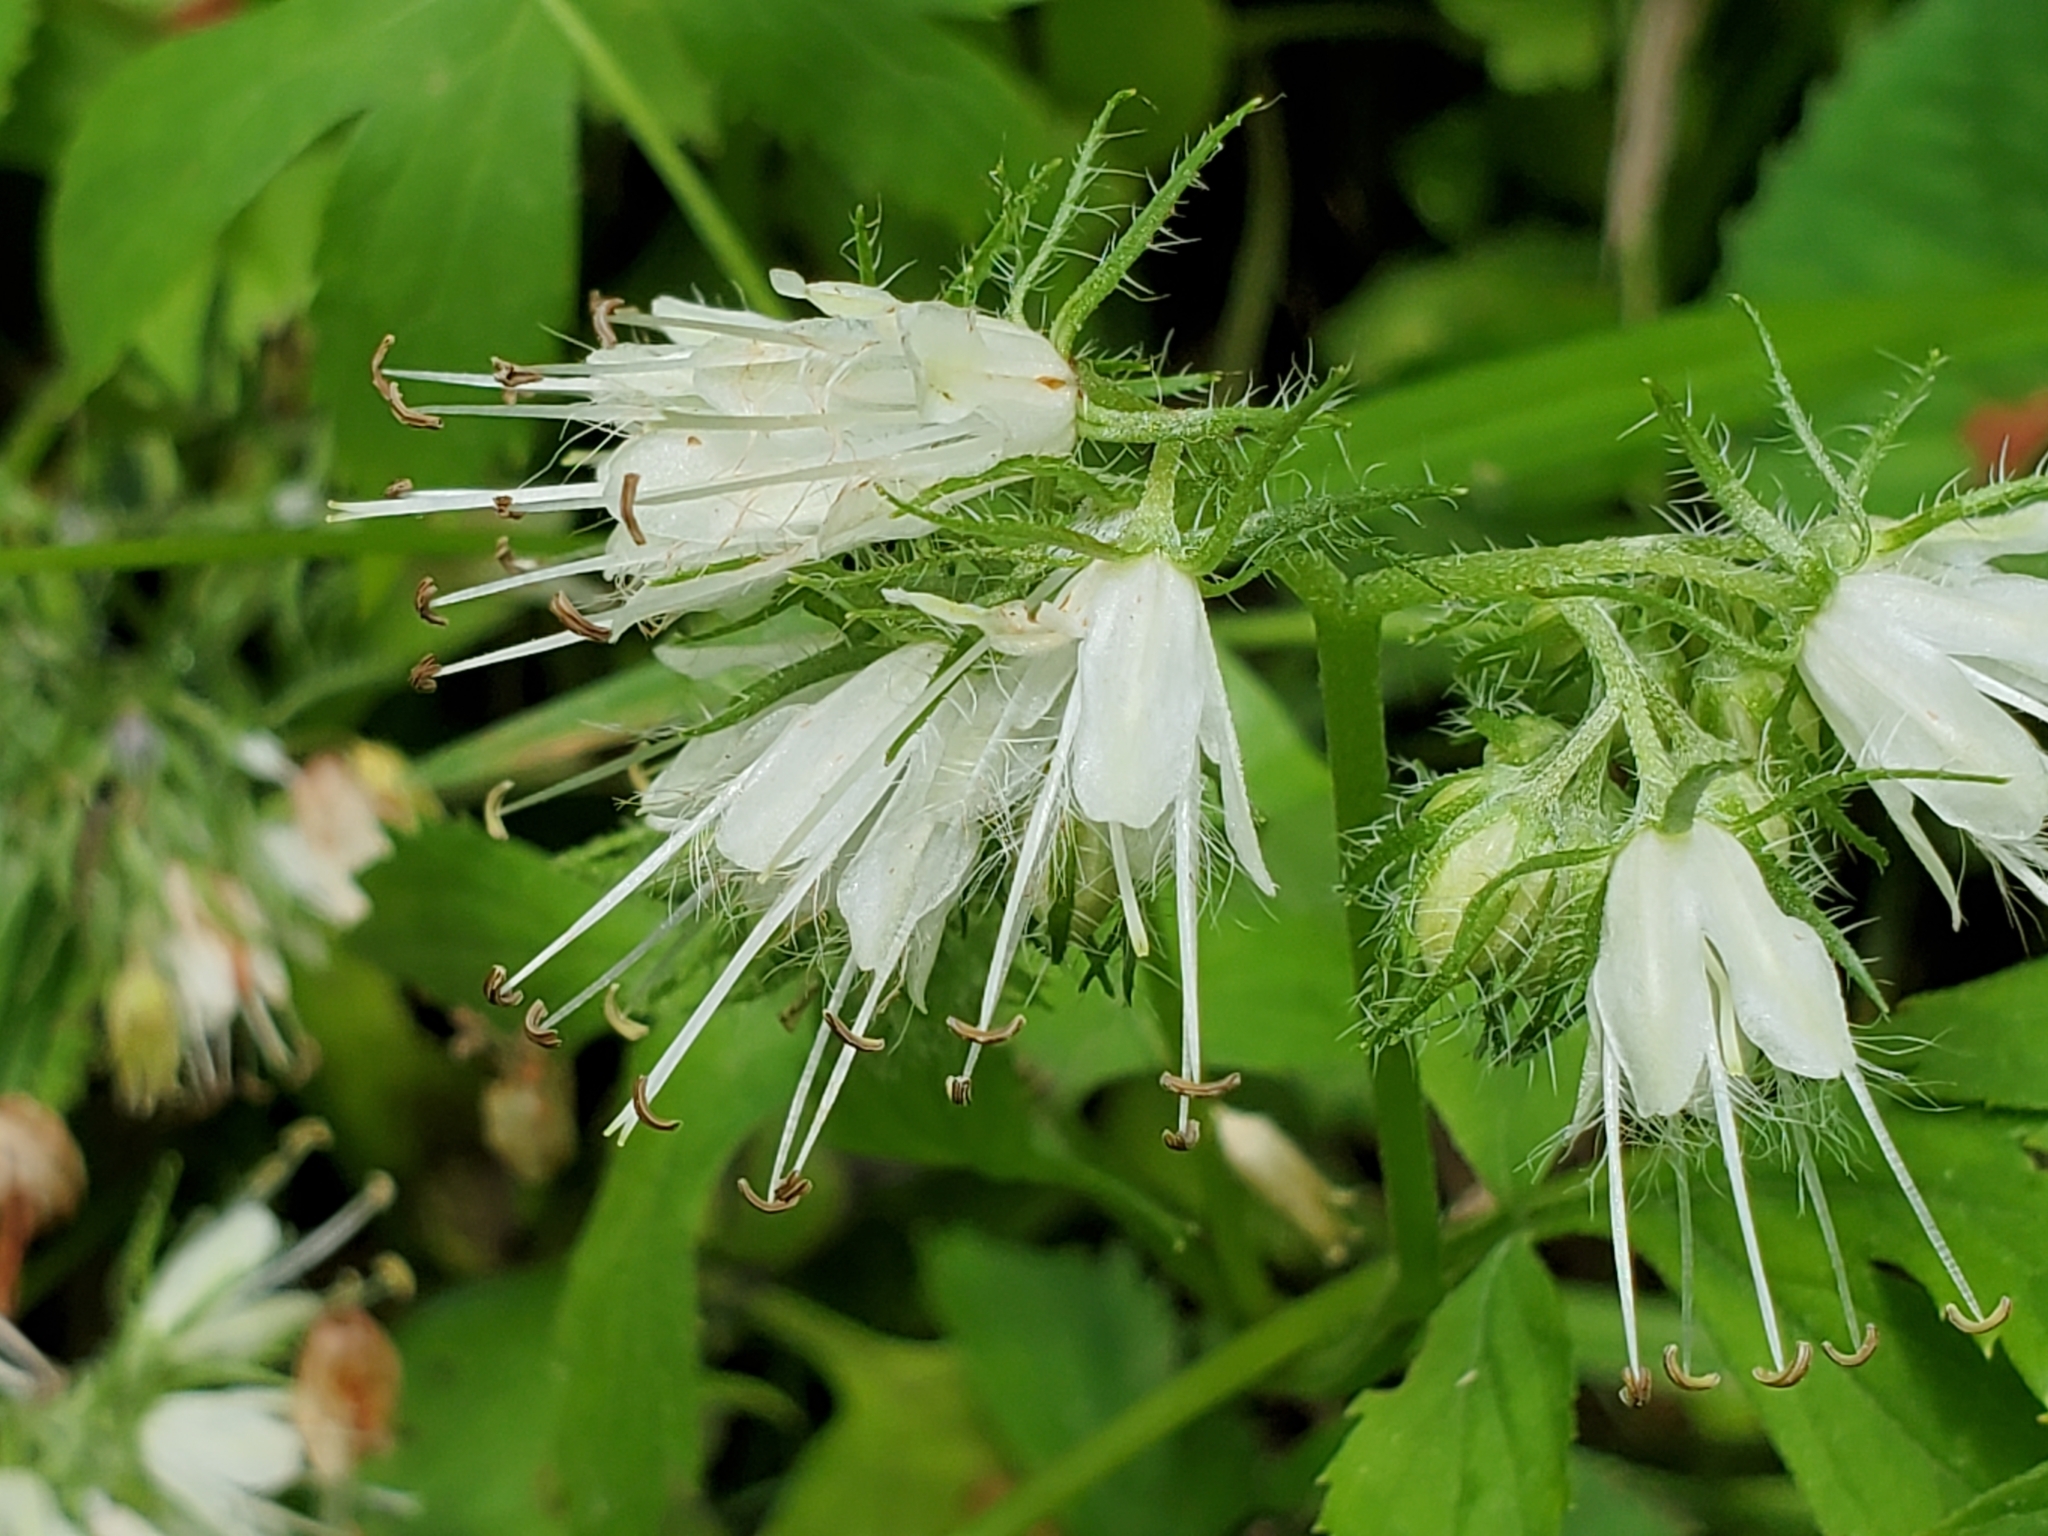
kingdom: Plantae
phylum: Tracheophyta
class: Magnoliopsida
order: Boraginales
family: Hydrophyllaceae
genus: Hydrophyllum
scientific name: Hydrophyllum virginianum
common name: Virginia waterleaf
